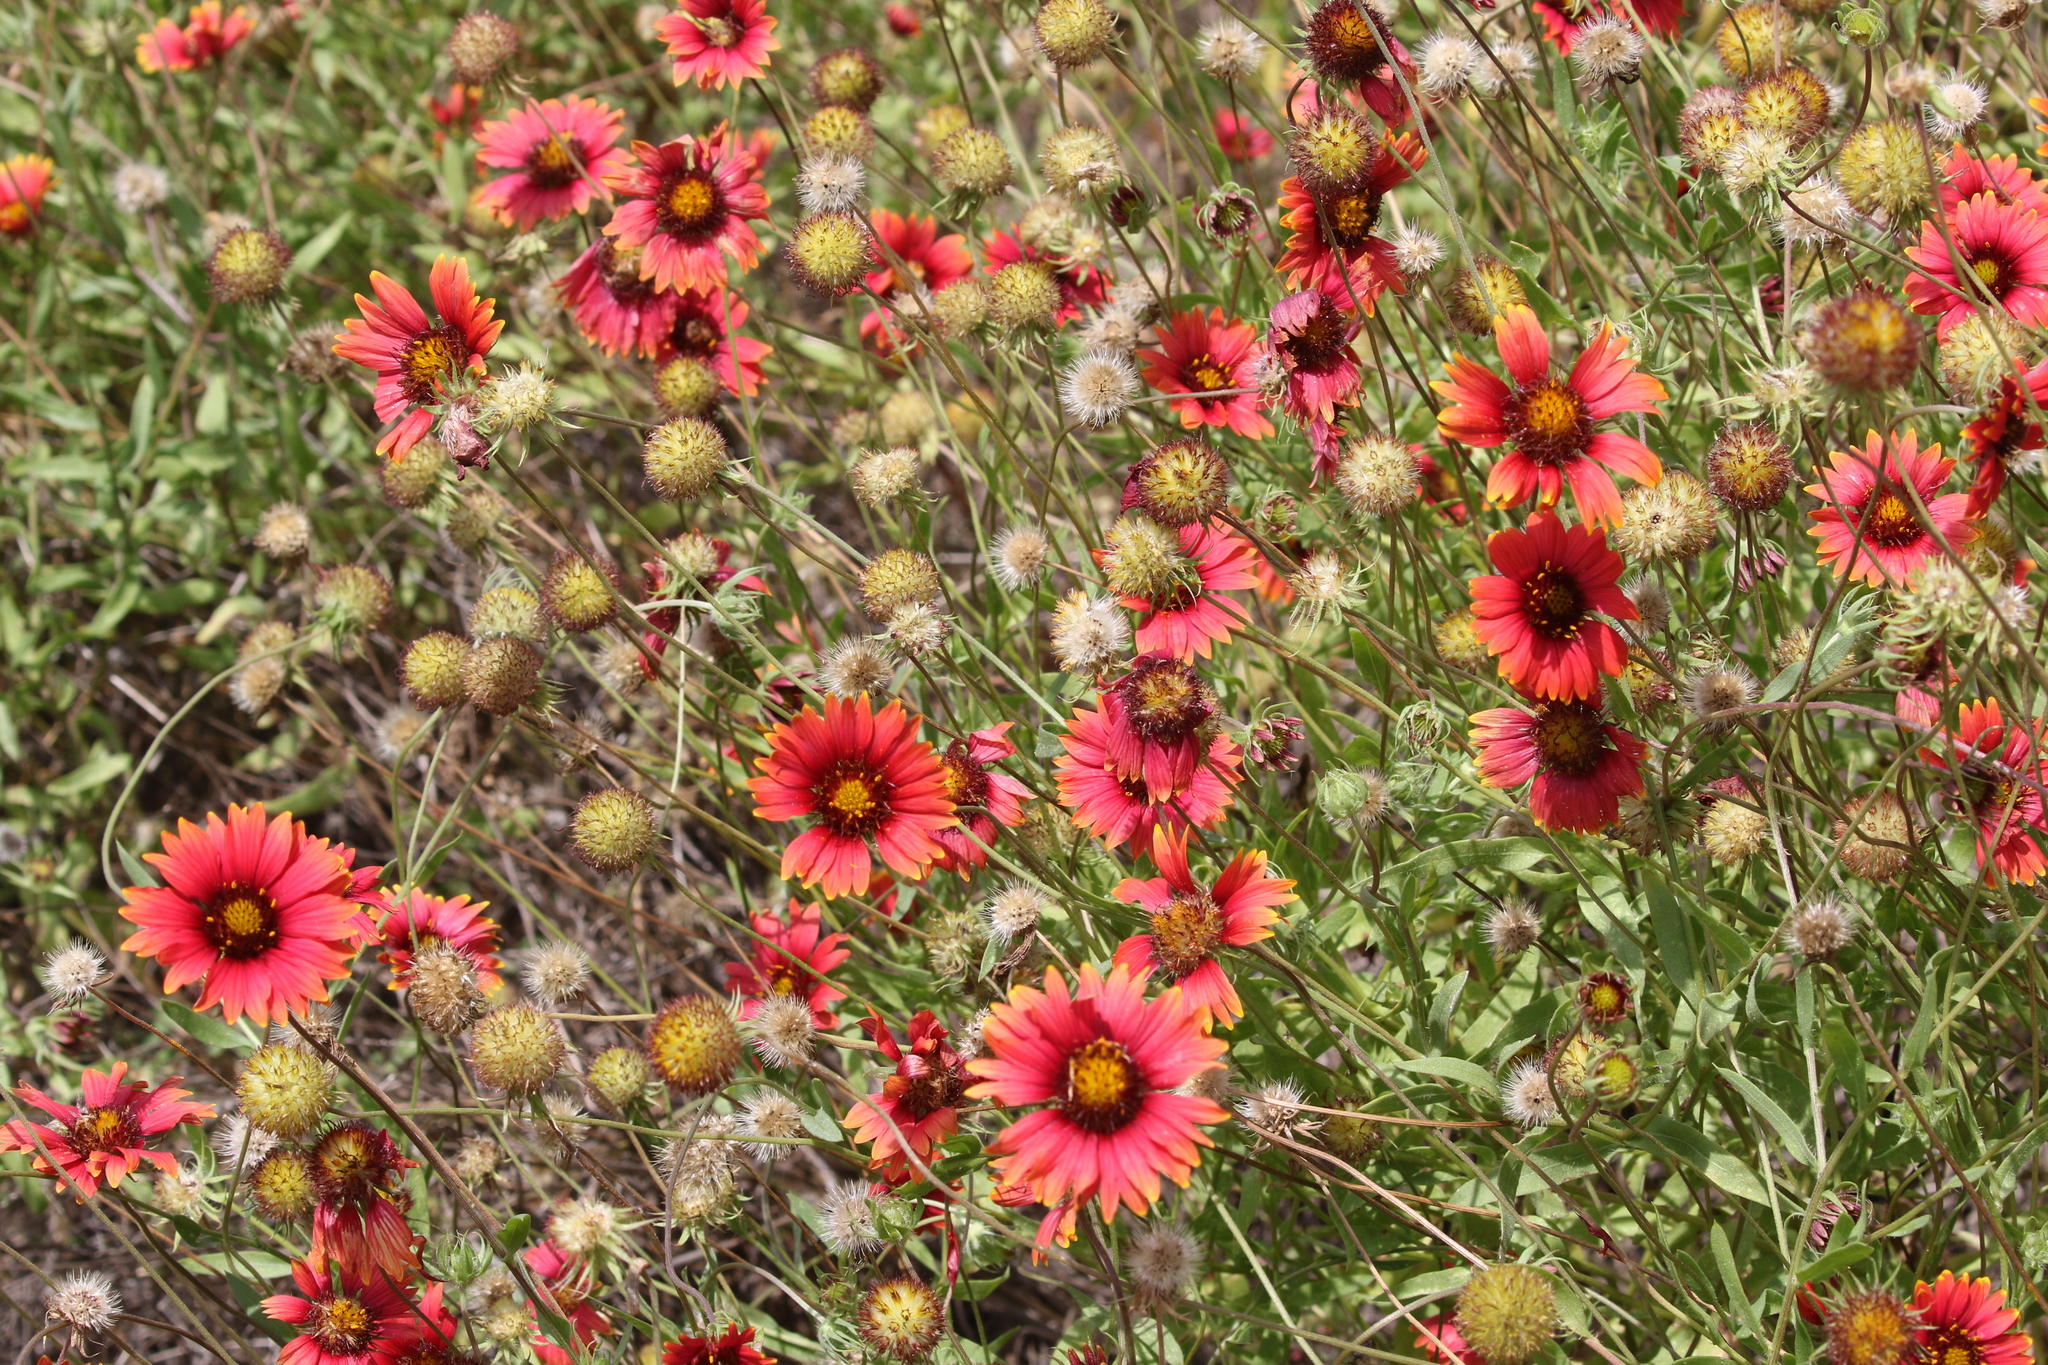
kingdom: Plantae
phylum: Tracheophyta
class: Magnoliopsida
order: Asterales
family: Asteraceae
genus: Gaillardia
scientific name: Gaillardia pulchella
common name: Firewheel
